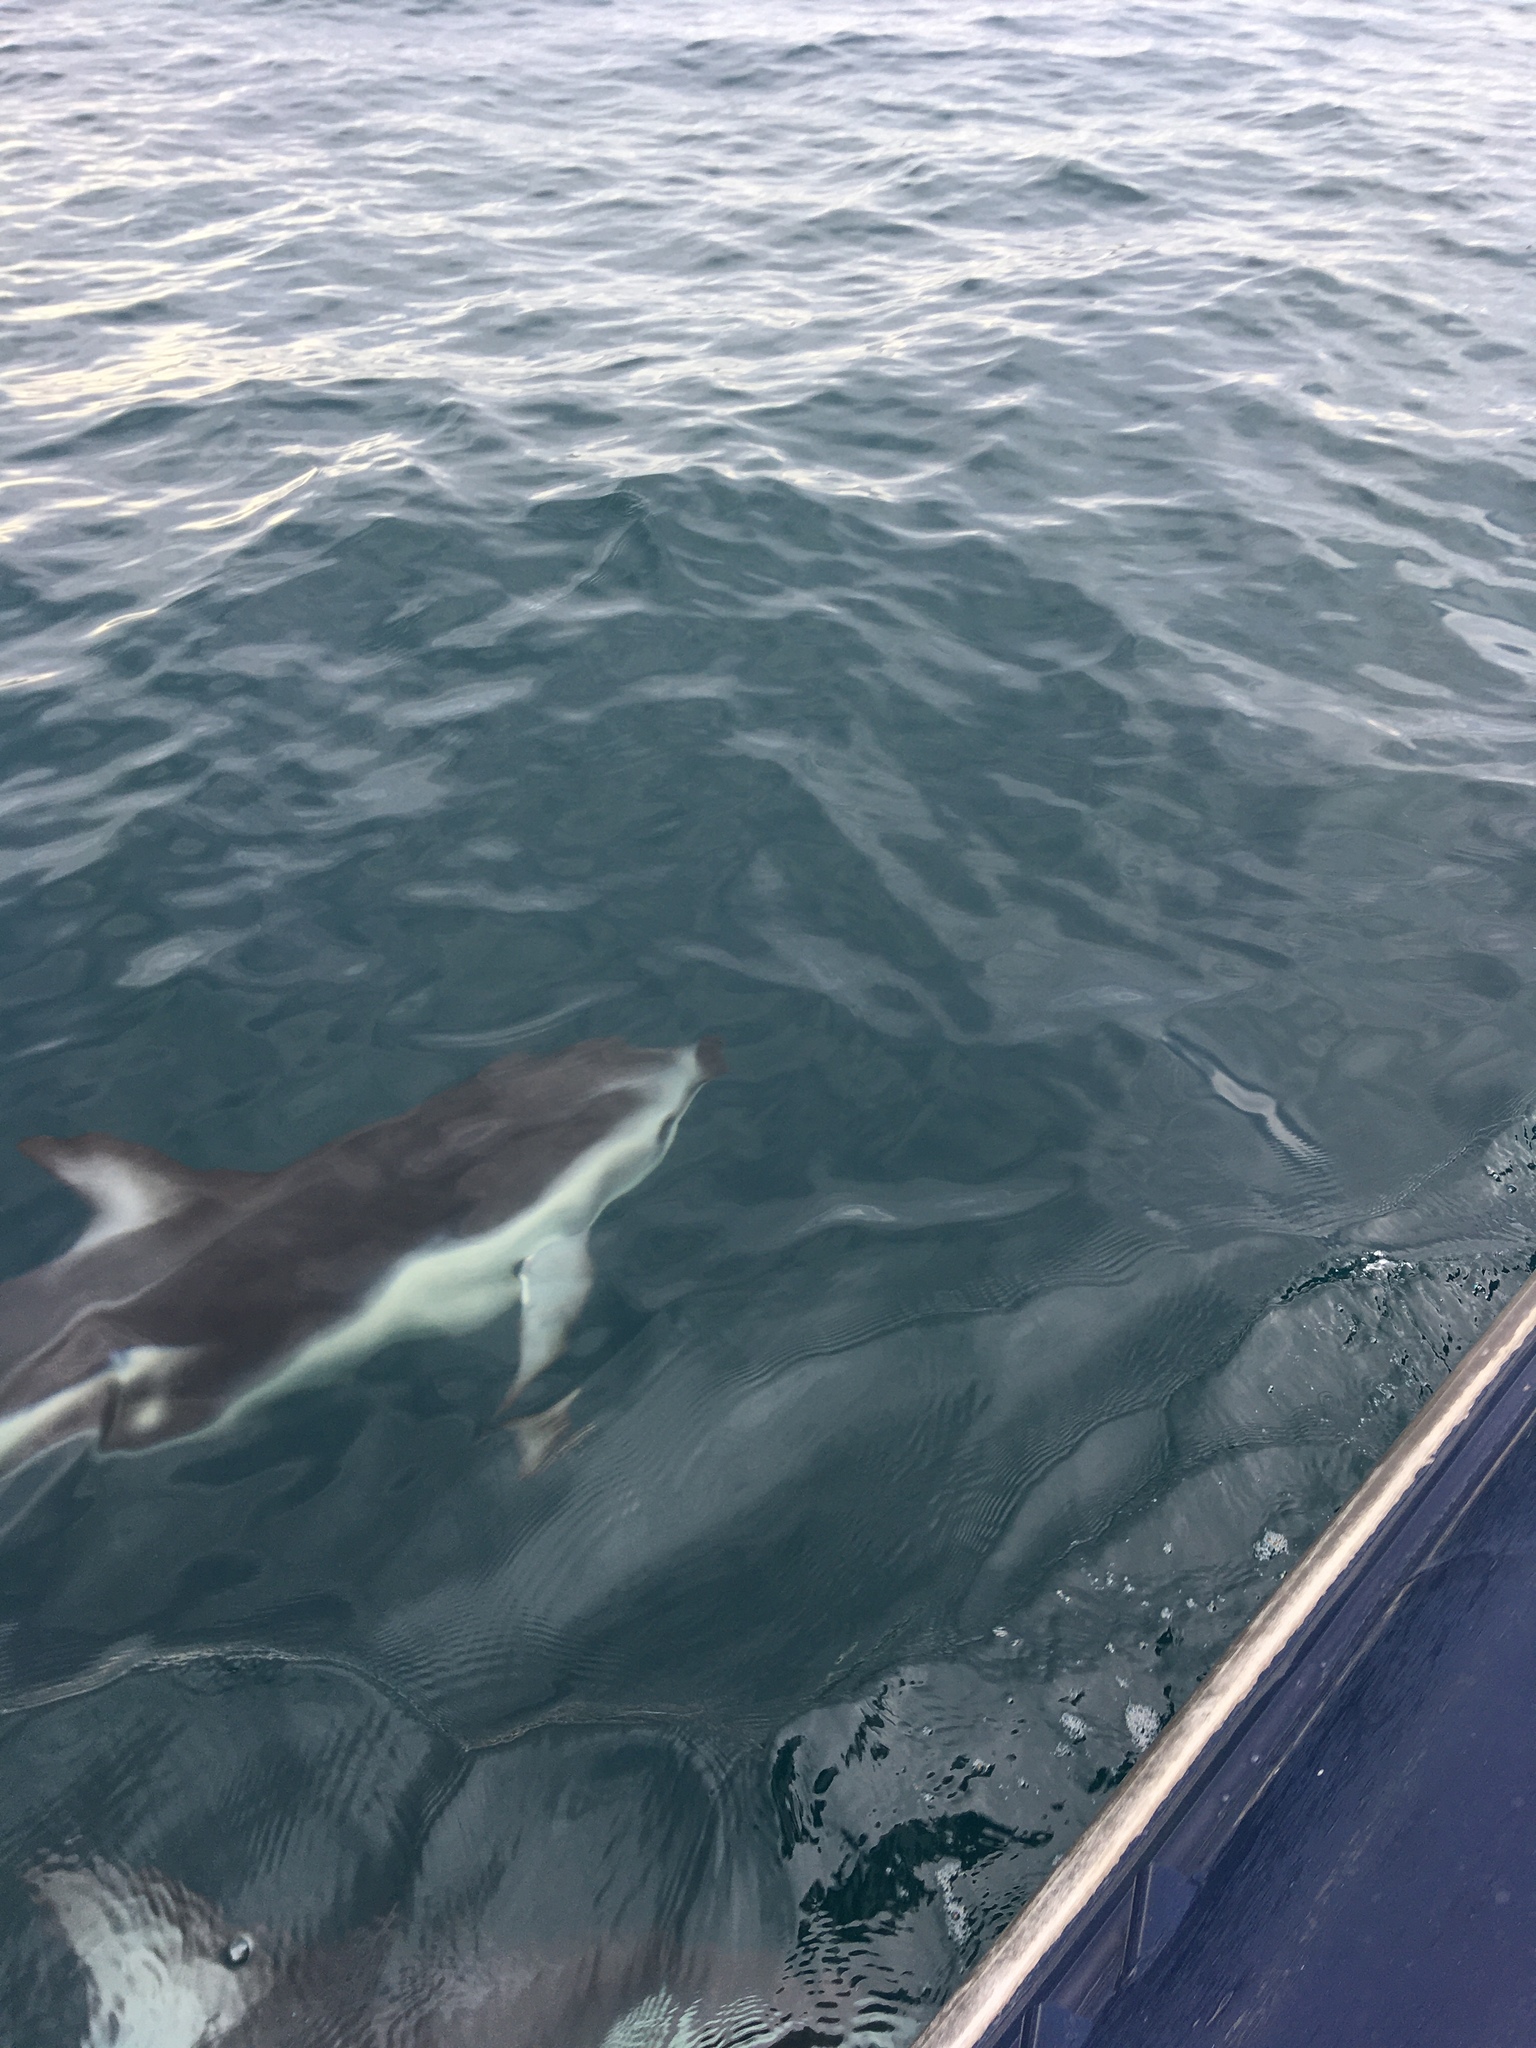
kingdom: Animalia
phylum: Chordata
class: Mammalia
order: Cetacea
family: Delphinidae
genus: Lagenorhynchus
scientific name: Lagenorhynchus obscurus
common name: Dusky dolphin
